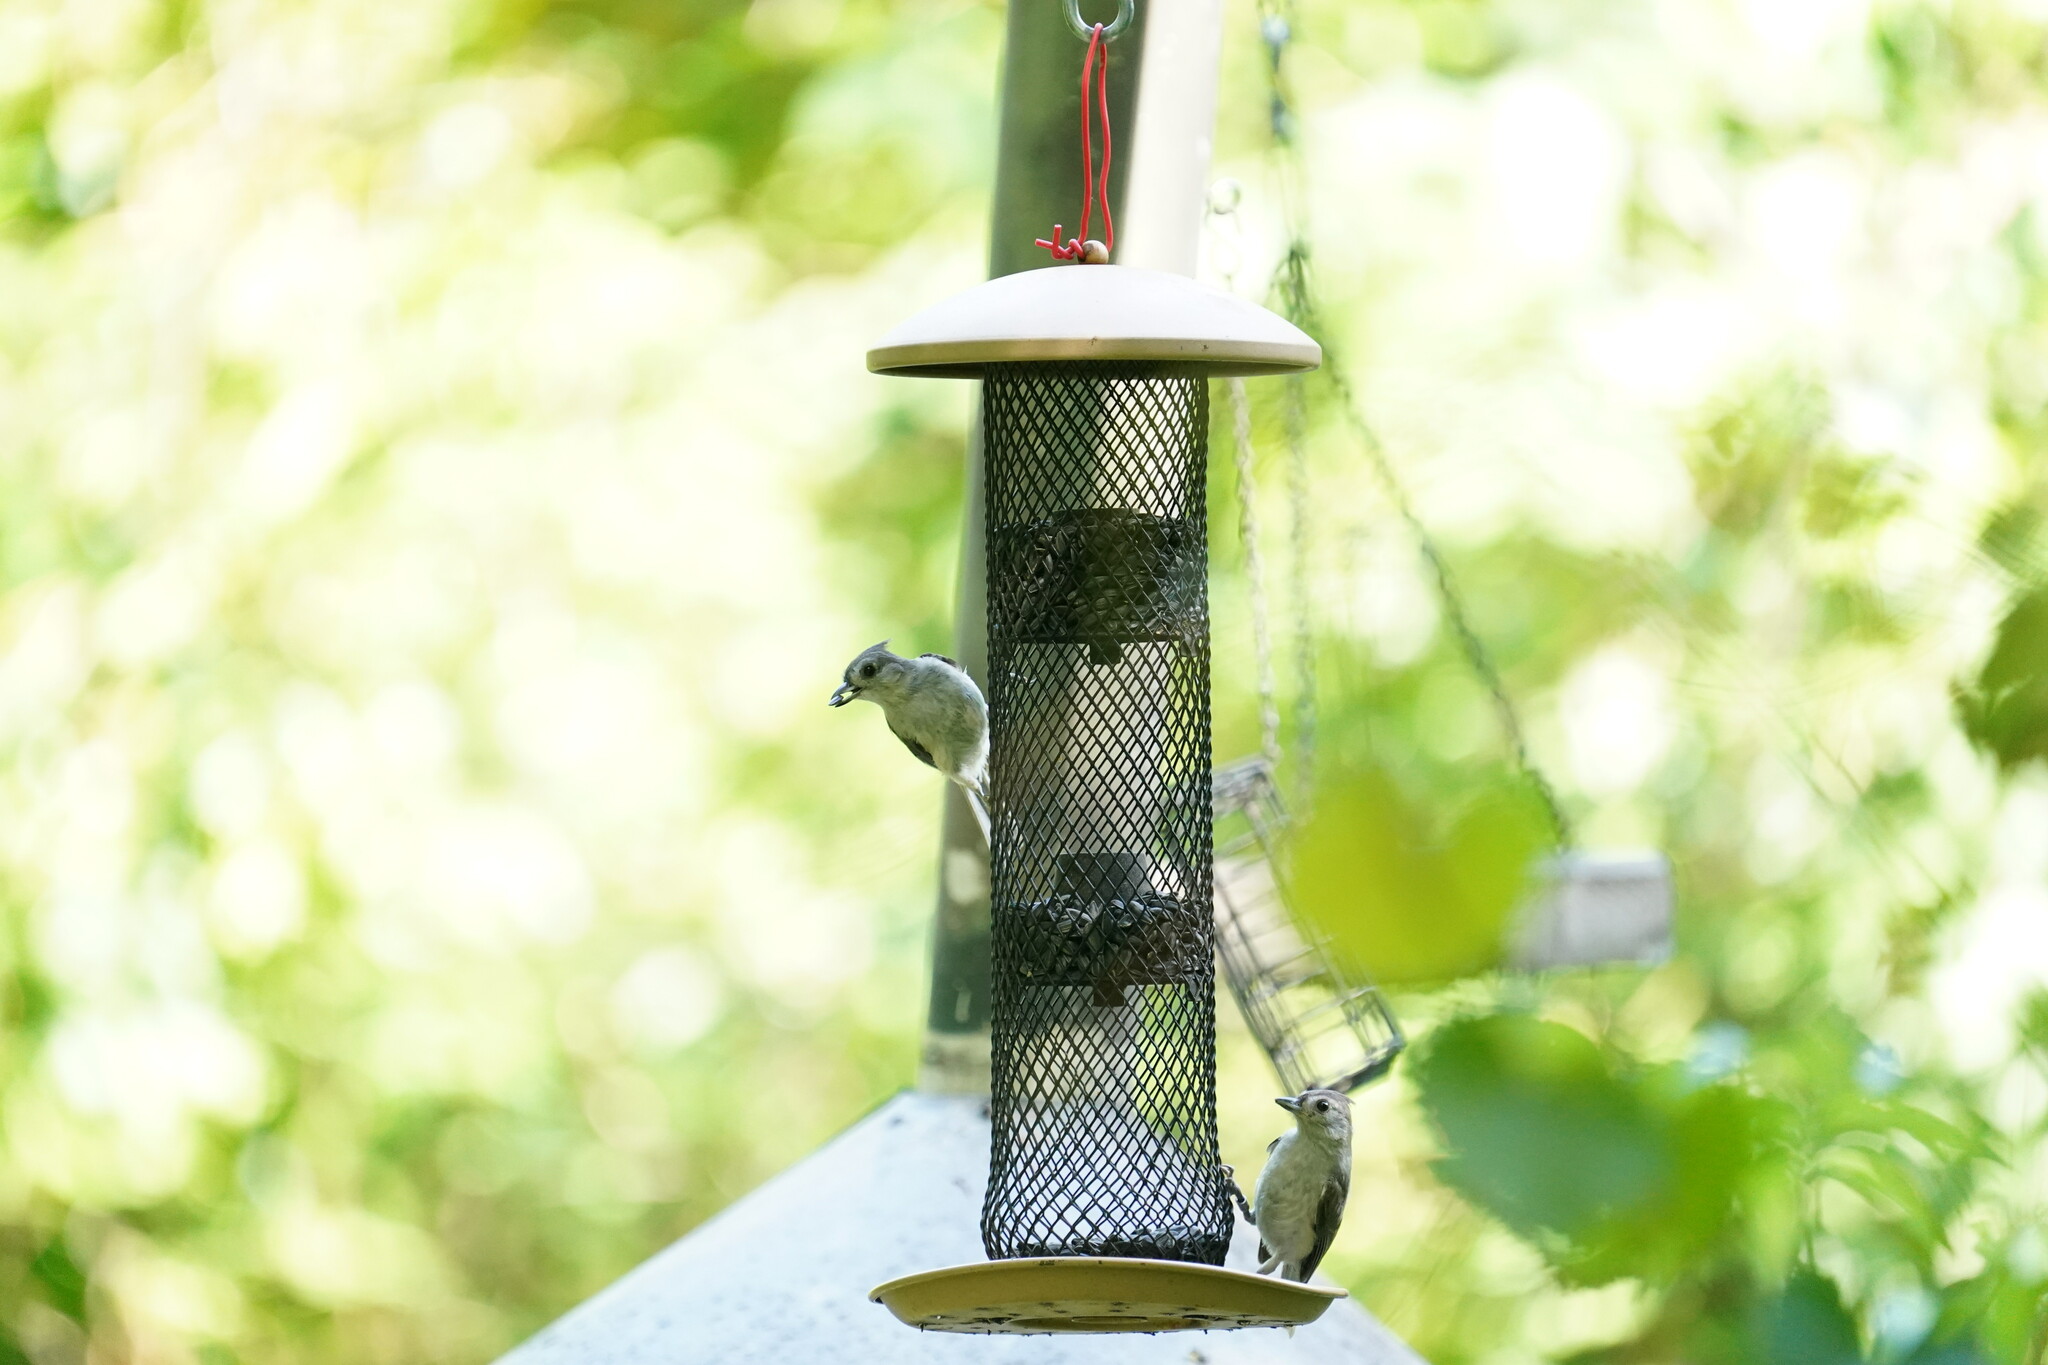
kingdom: Animalia
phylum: Chordata
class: Aves
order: Passeriformes
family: Paridae
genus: Baeolophus
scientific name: Baeolophus bicolor
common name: Tufted titmouse
